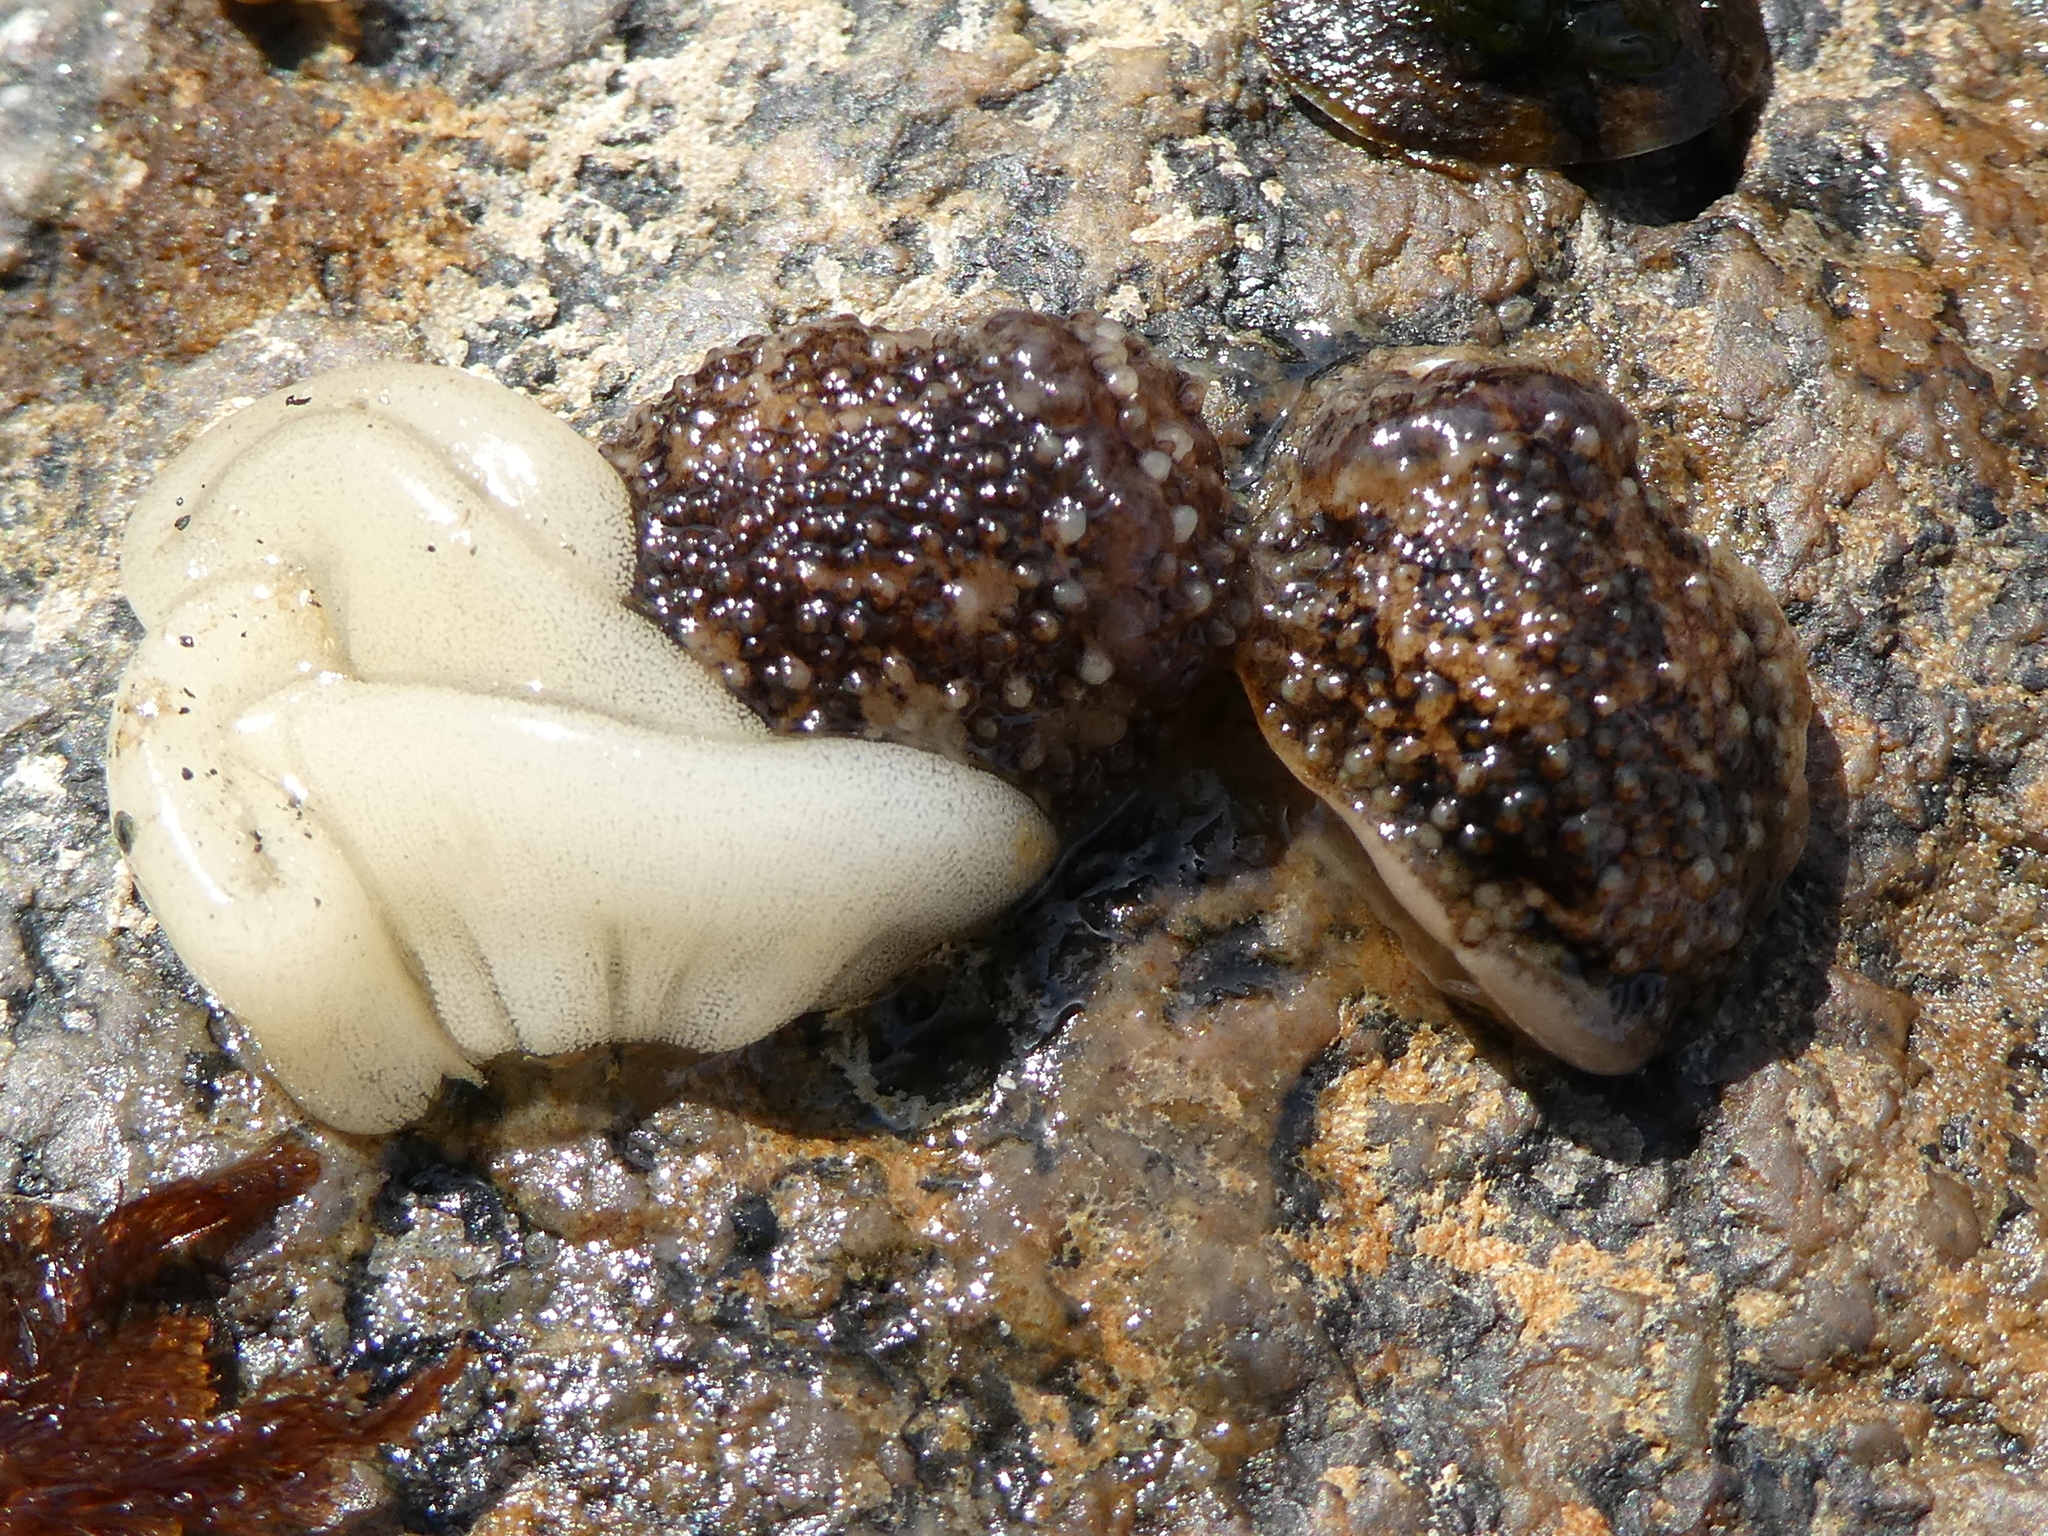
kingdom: Animalia
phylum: Mollusca
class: Gastropoda
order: Nudibranchia
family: Onchidorididae
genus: Onchidoris
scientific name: Onchidoris bilamellata
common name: Barnacle-eating onchidoris
